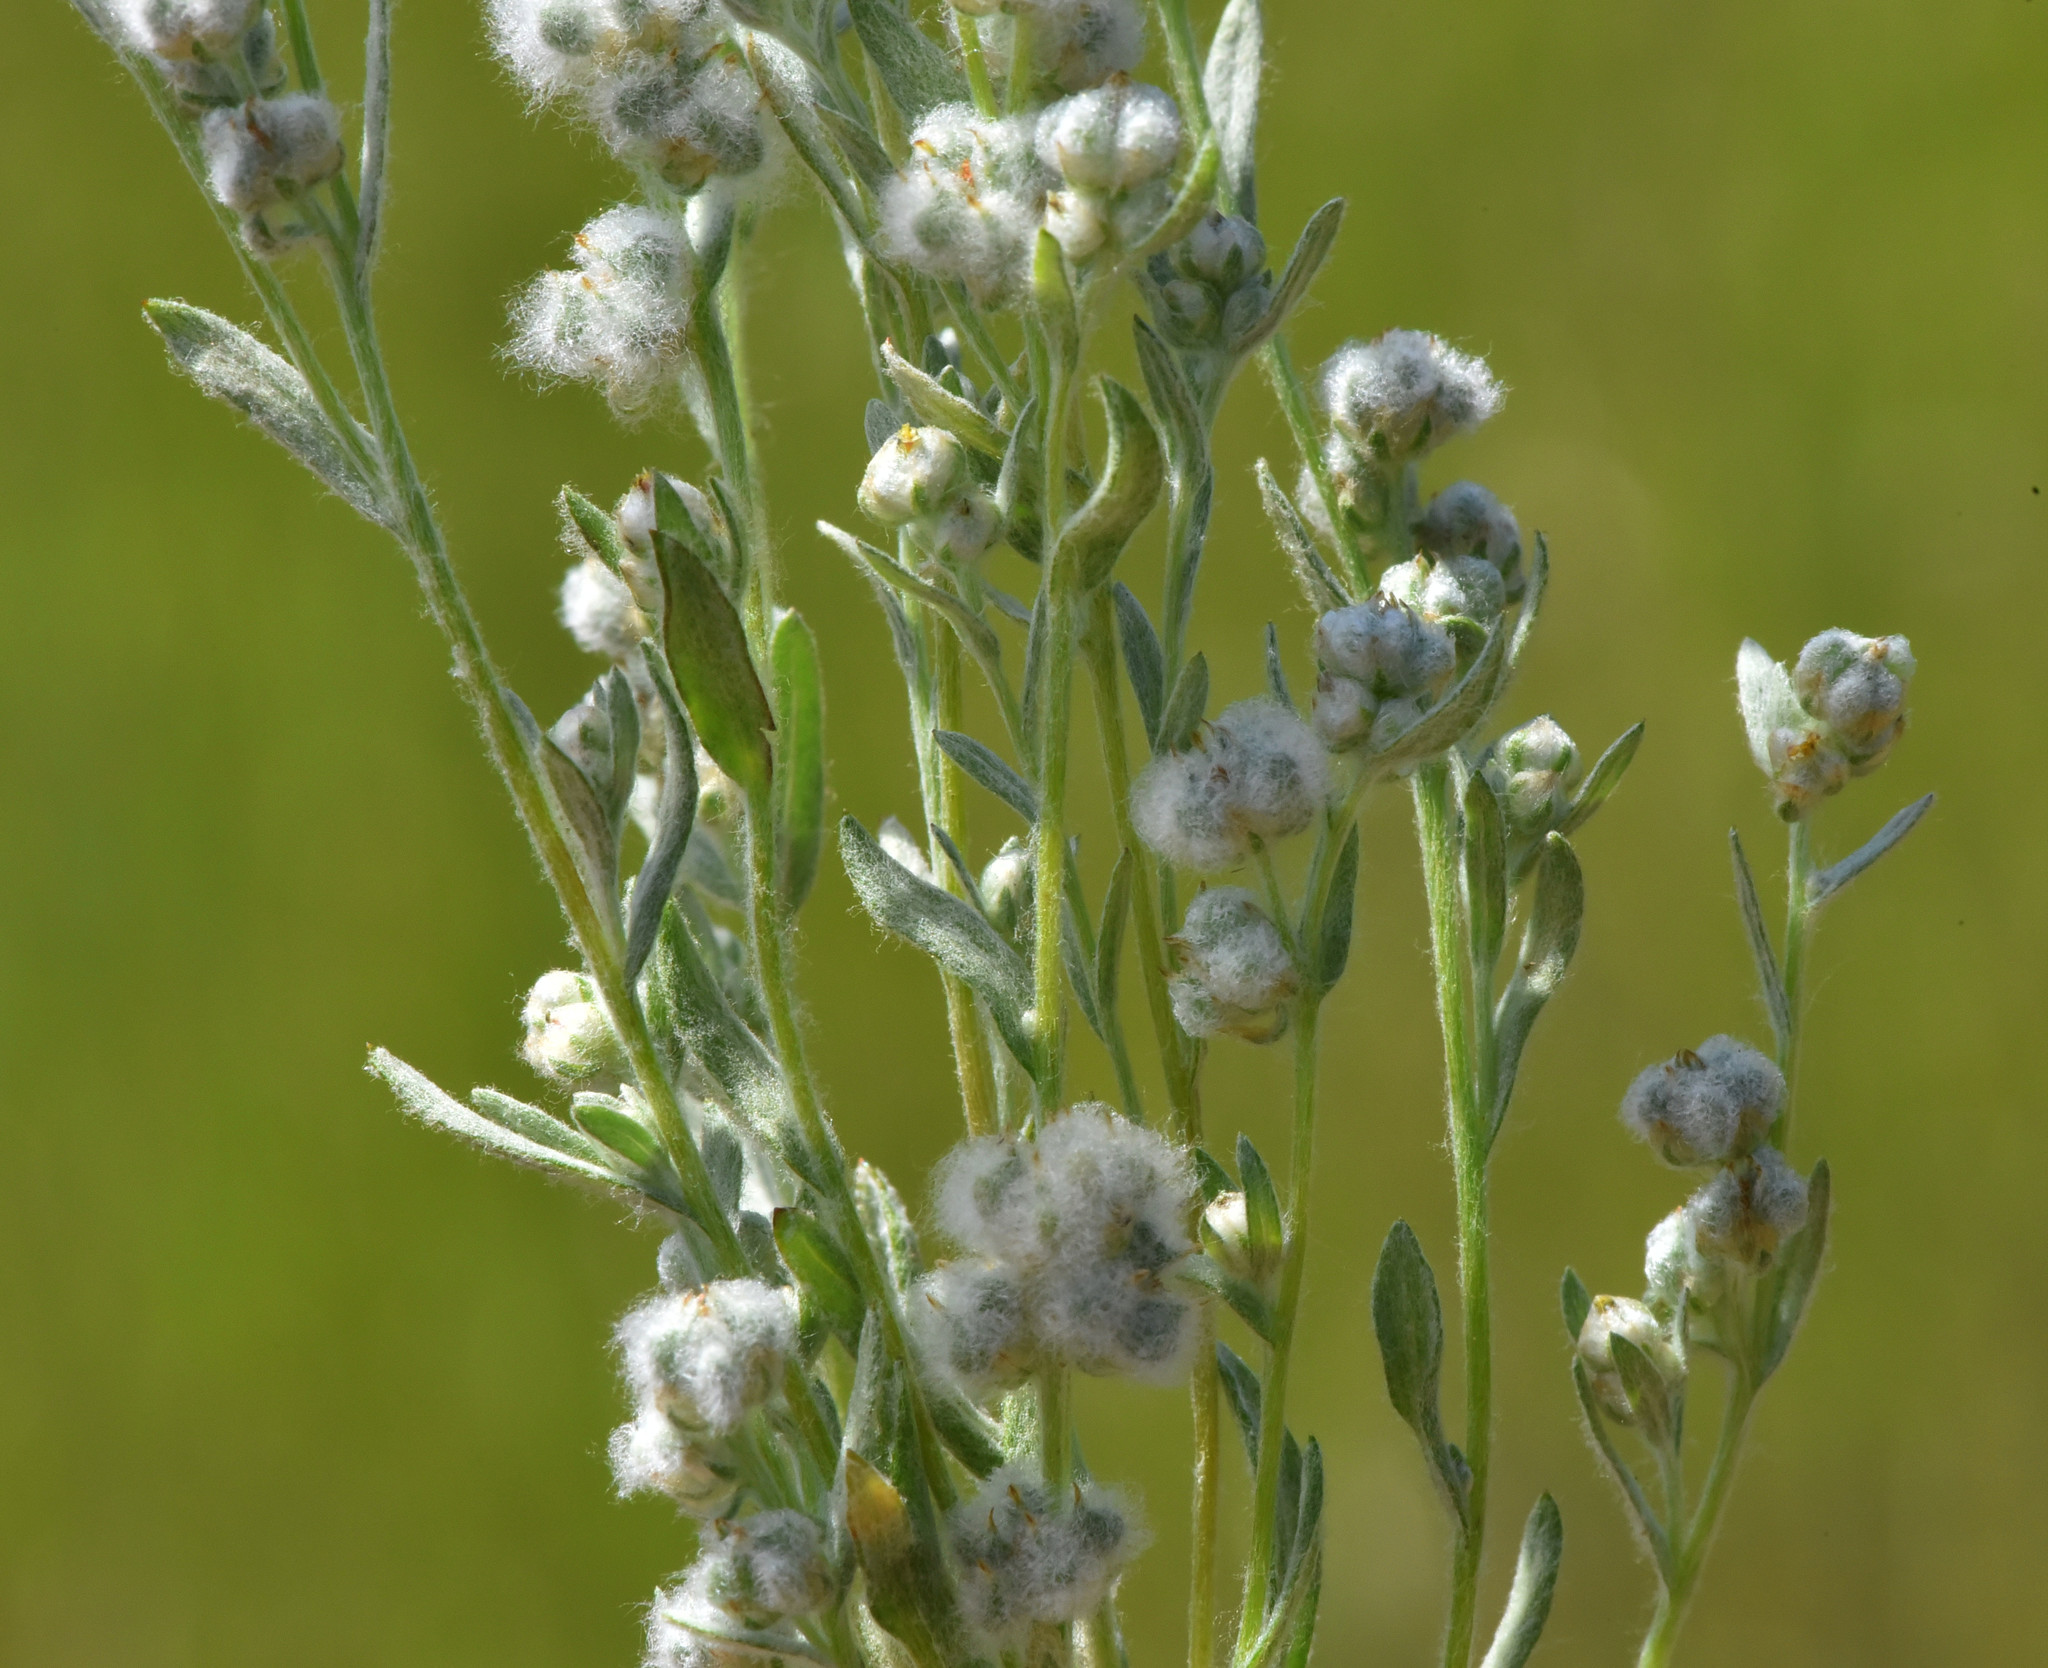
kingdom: Plantae
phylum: Tracheophyta
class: Magnoliopsida
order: Asterales
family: Asteraceae
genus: Bombycilaena
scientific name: Bombycilaena californica
